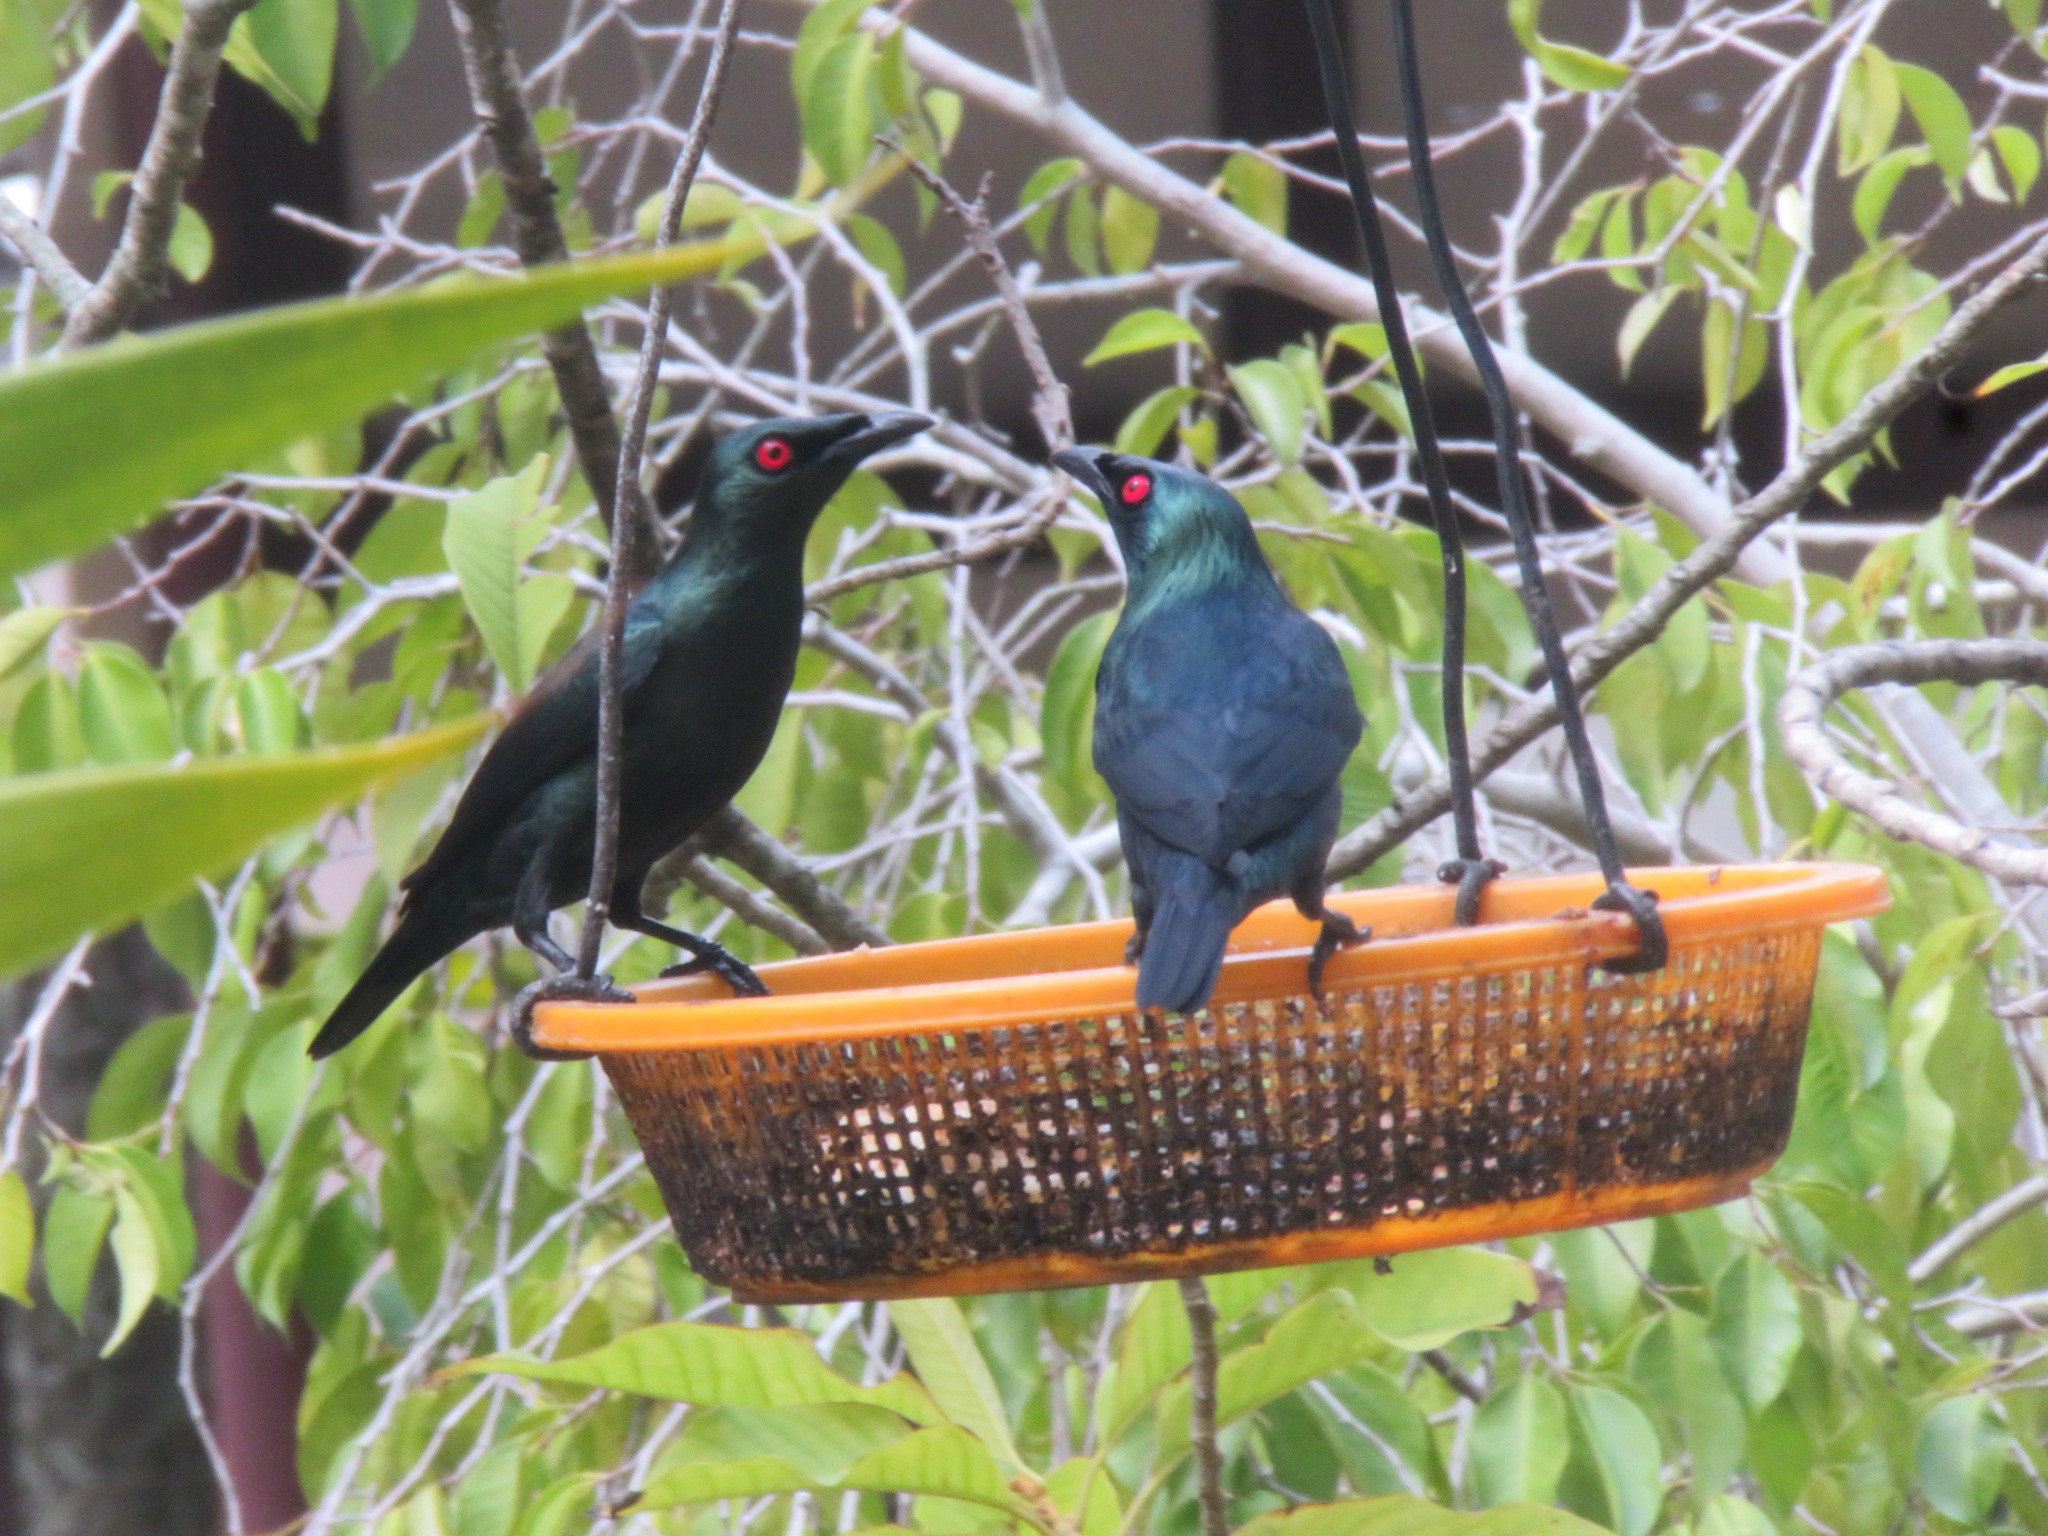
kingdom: Animalia
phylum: Chordata
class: Aves
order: Passeriformes
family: Sturnidae
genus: Aplonis
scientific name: Aplonis panayensis
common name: Asian glossy starling
